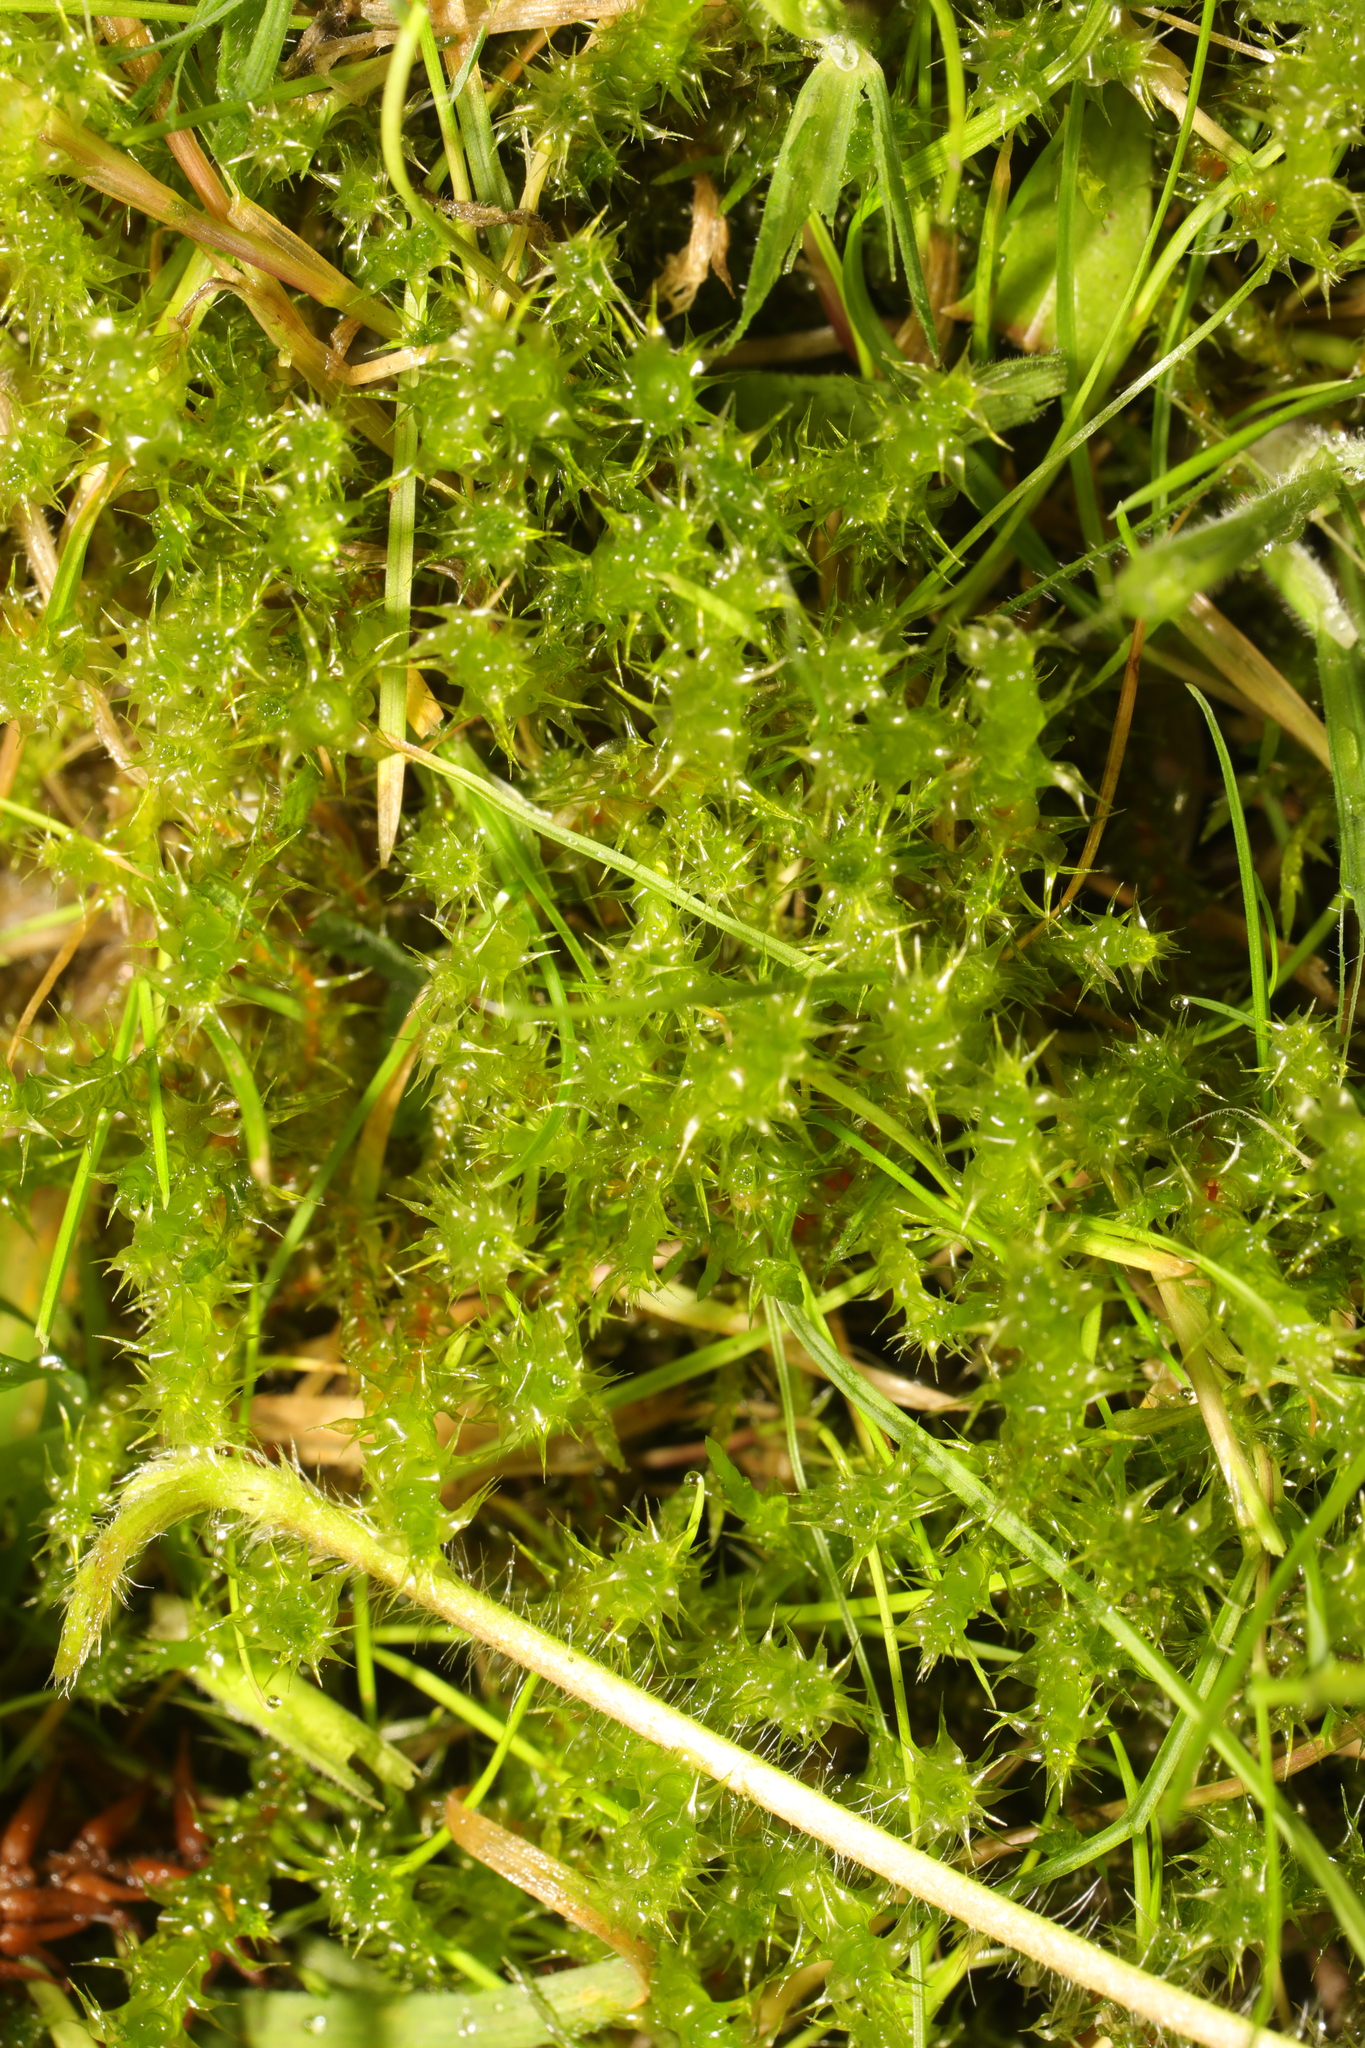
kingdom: Plantae
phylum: Bryophyta
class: Bryopsida
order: Hypnales
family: Hylocomiaceae
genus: Rhytidiadelphus
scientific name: Rhytidiadelphus squarrosus
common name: Springy turf-moss
